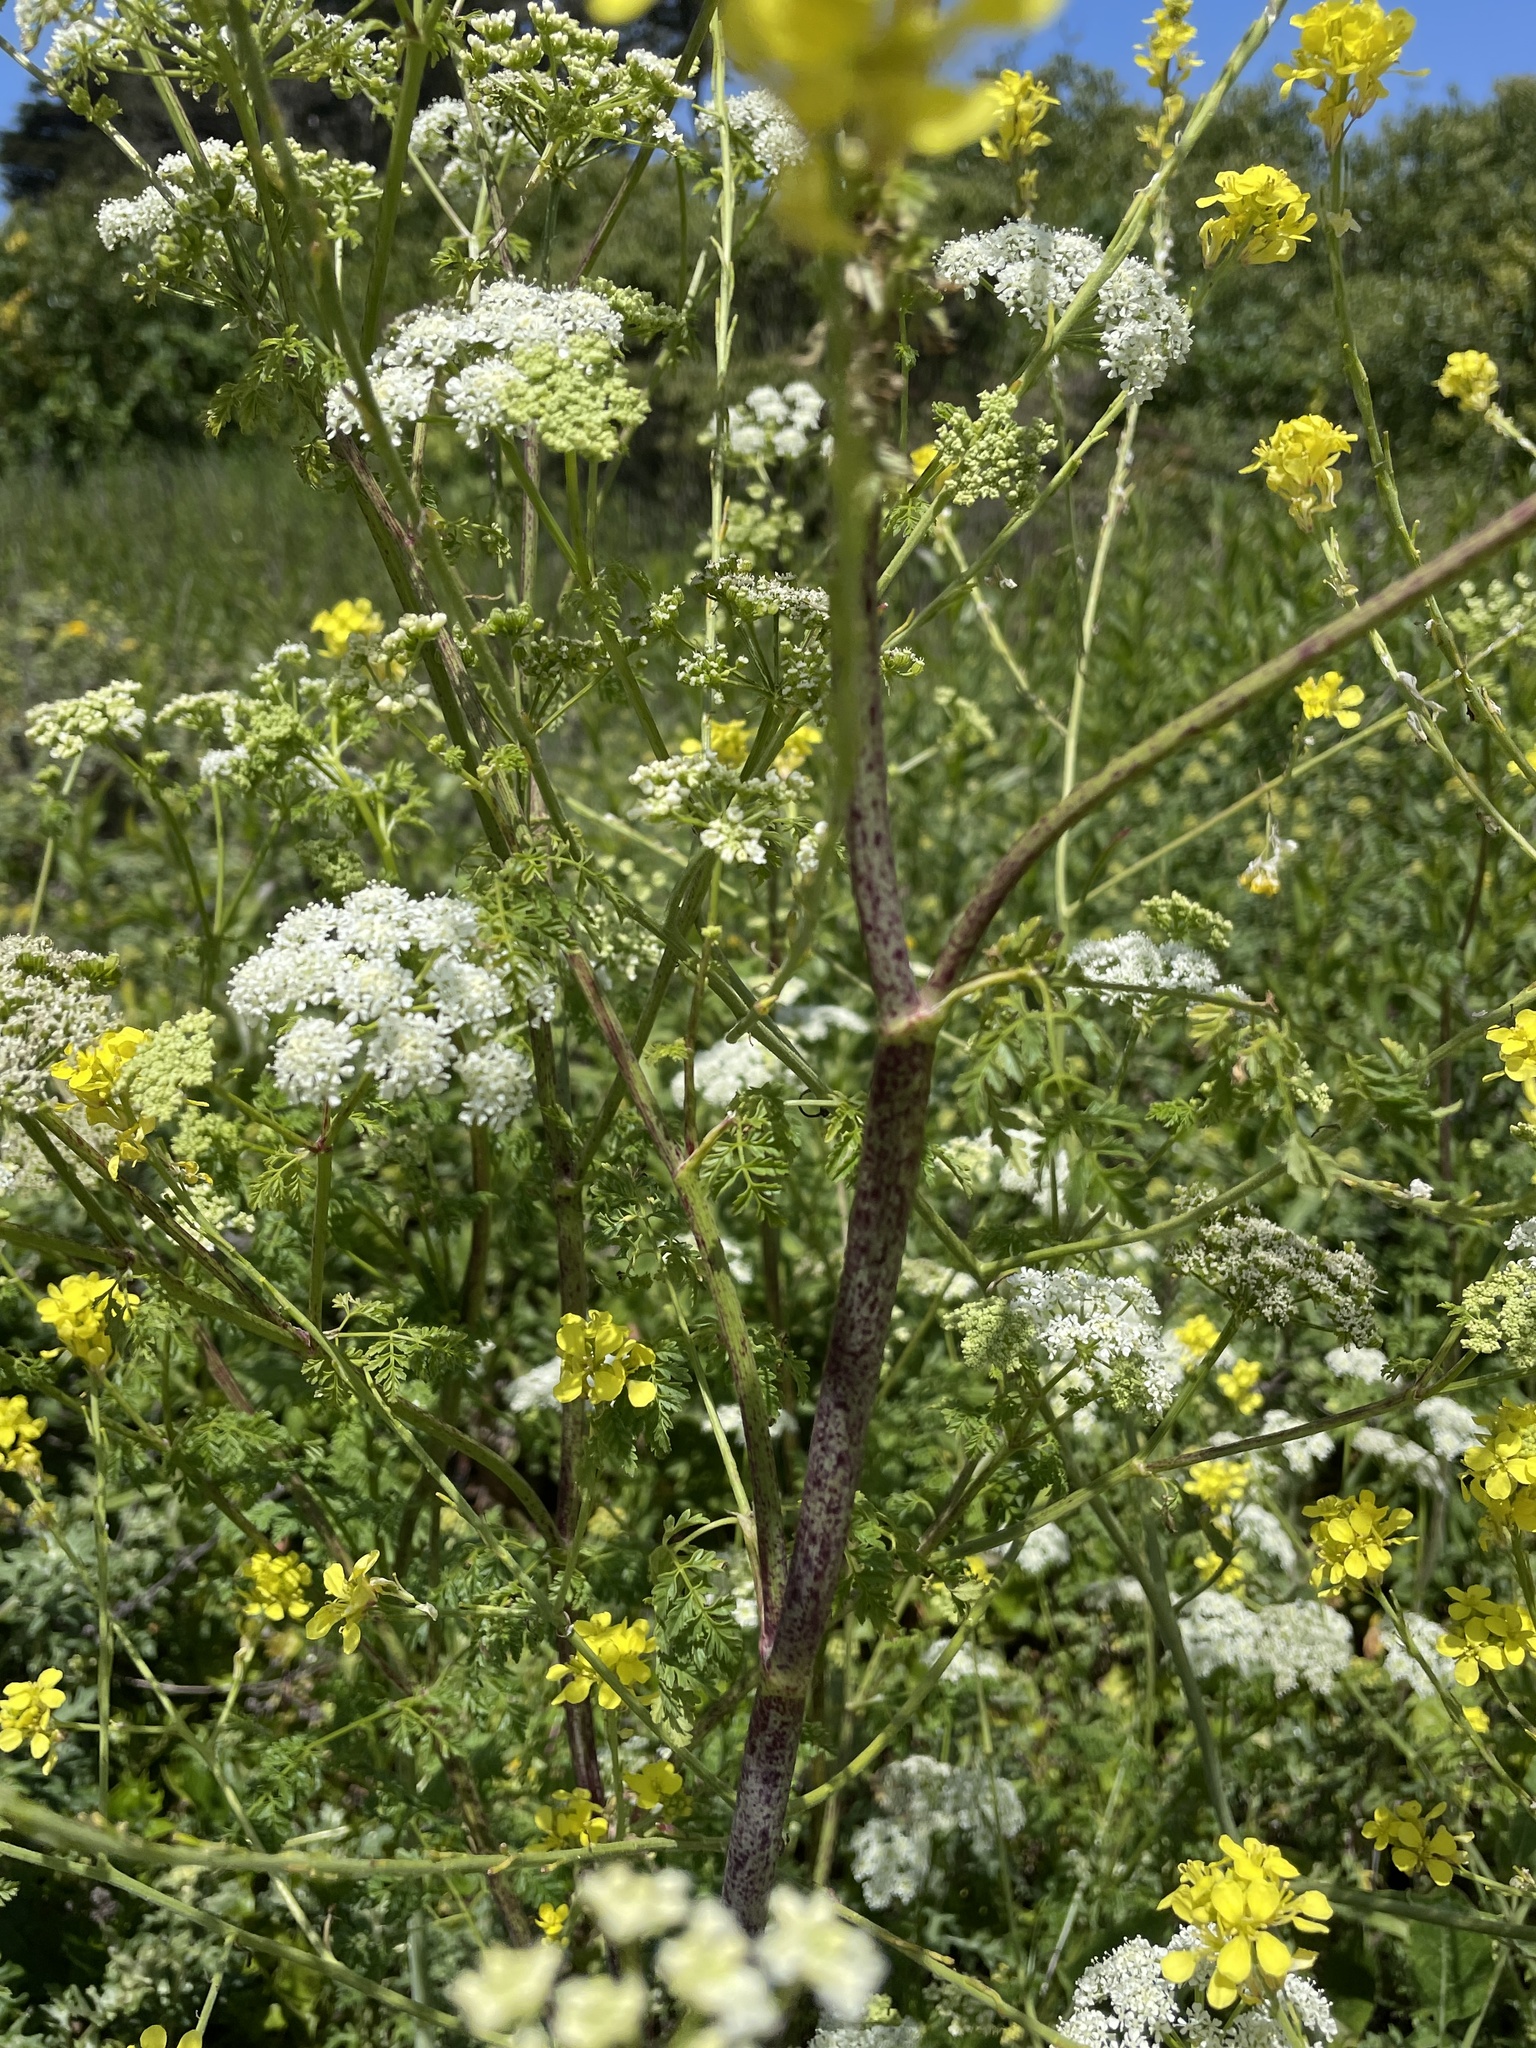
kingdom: Plantae
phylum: Tracheophyta
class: Magnoliopsida
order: Apiales
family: Apiaceae
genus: Conium
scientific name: Conium maculatum
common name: Hemlock
